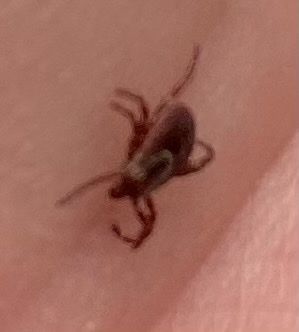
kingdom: Animalia
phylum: Arthropoda
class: Arachnida
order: Ixodida
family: Ixodidae
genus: Dermacentor
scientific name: Dermacentor variabilis
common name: American dog tick
